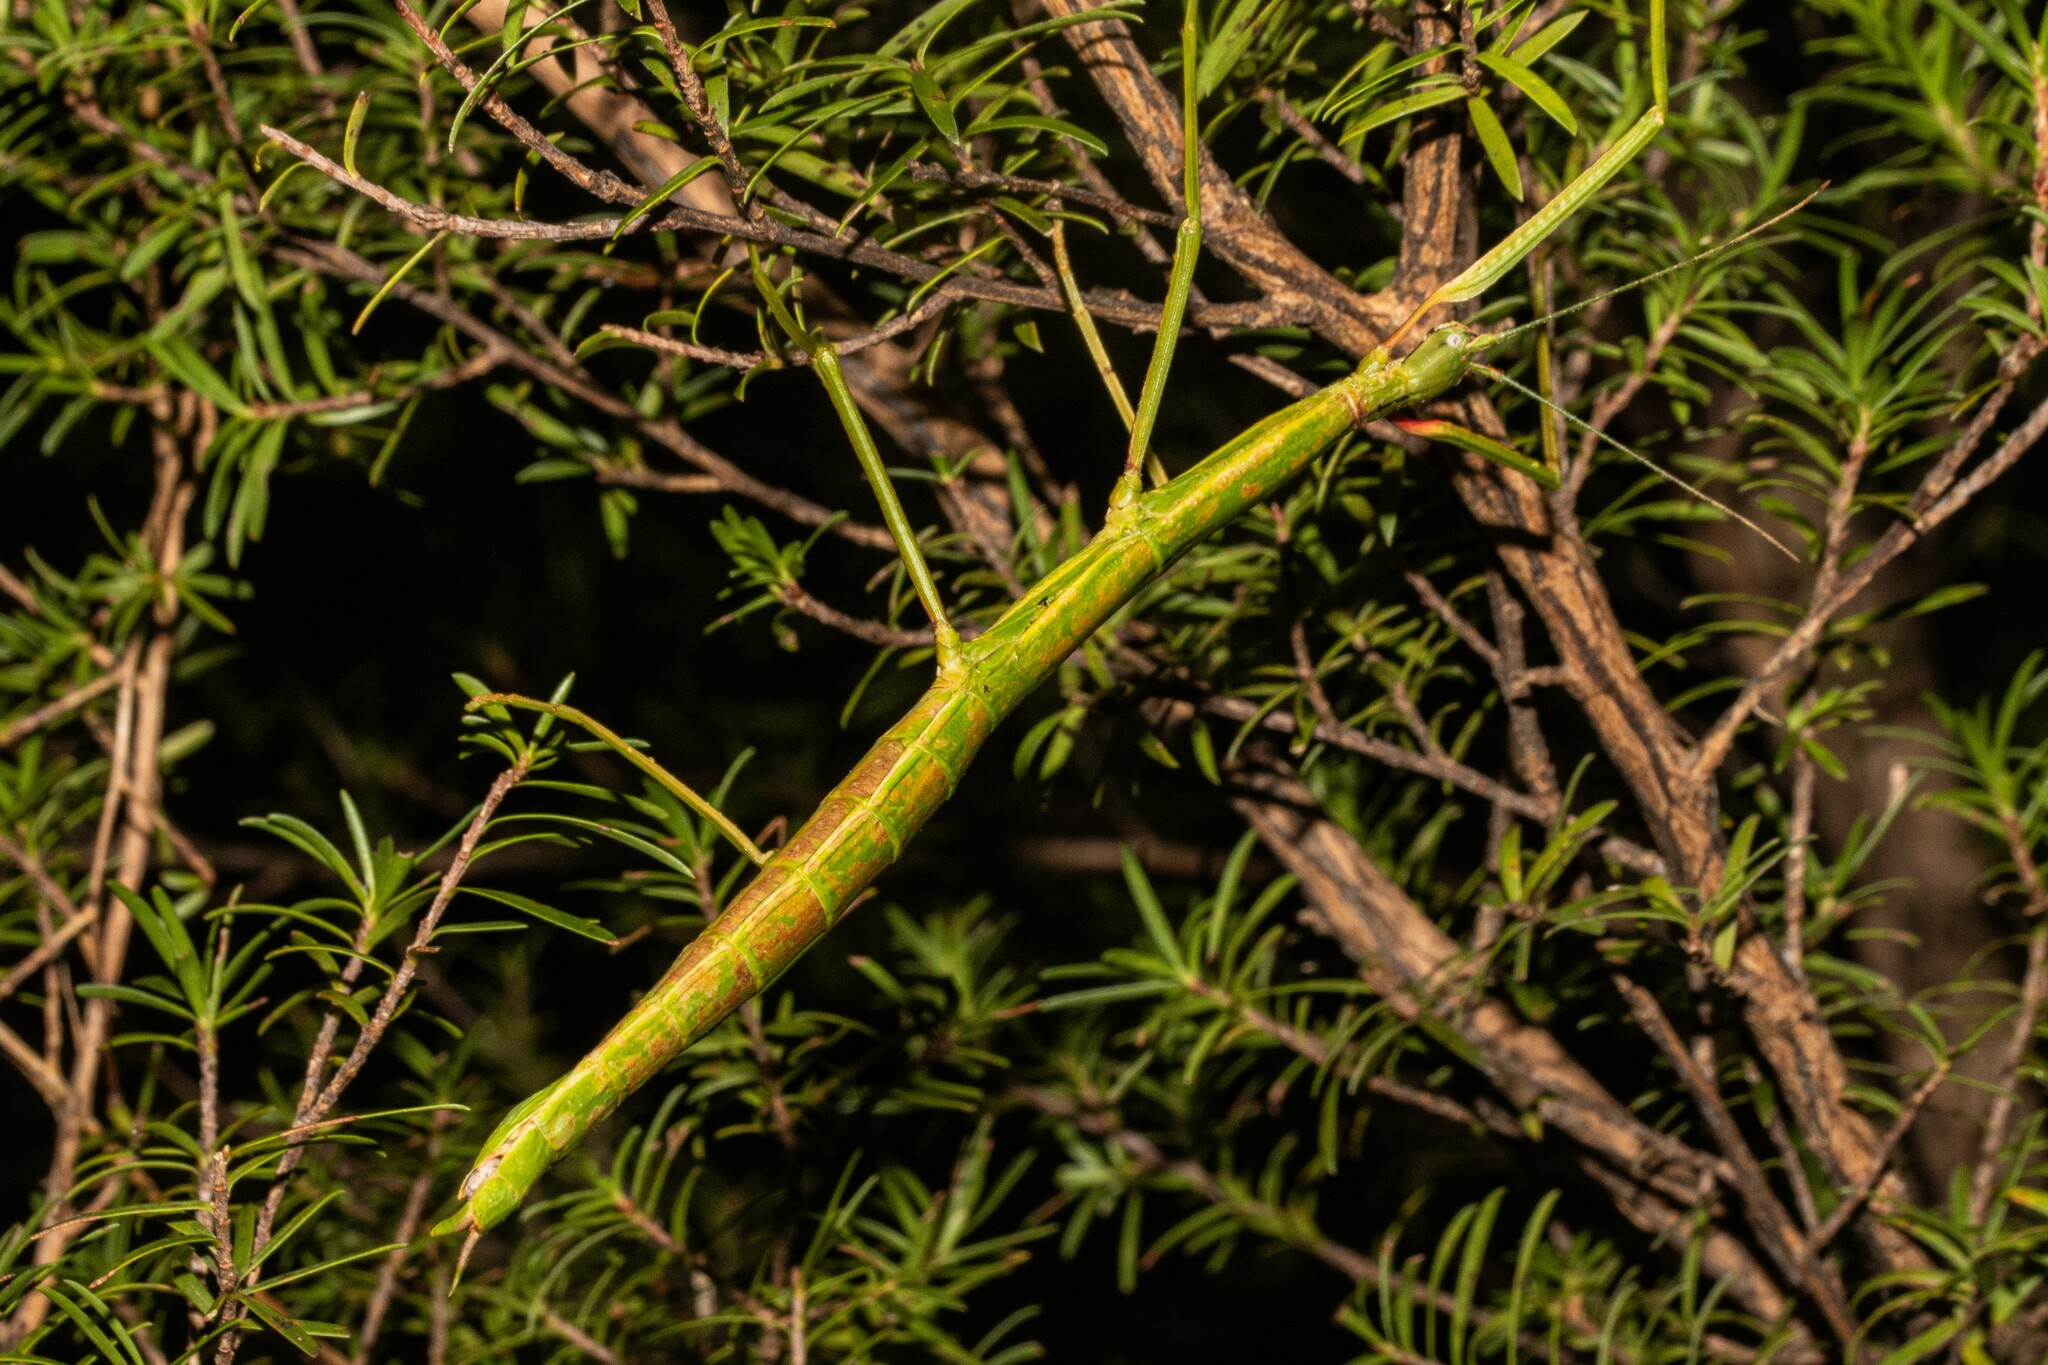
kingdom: Animalia
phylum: Arthropoda
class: Insecta
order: Phasmida
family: Phasmatidae
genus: Clitarchus
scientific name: Clitarchus hookeri
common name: Smooth stick insect
